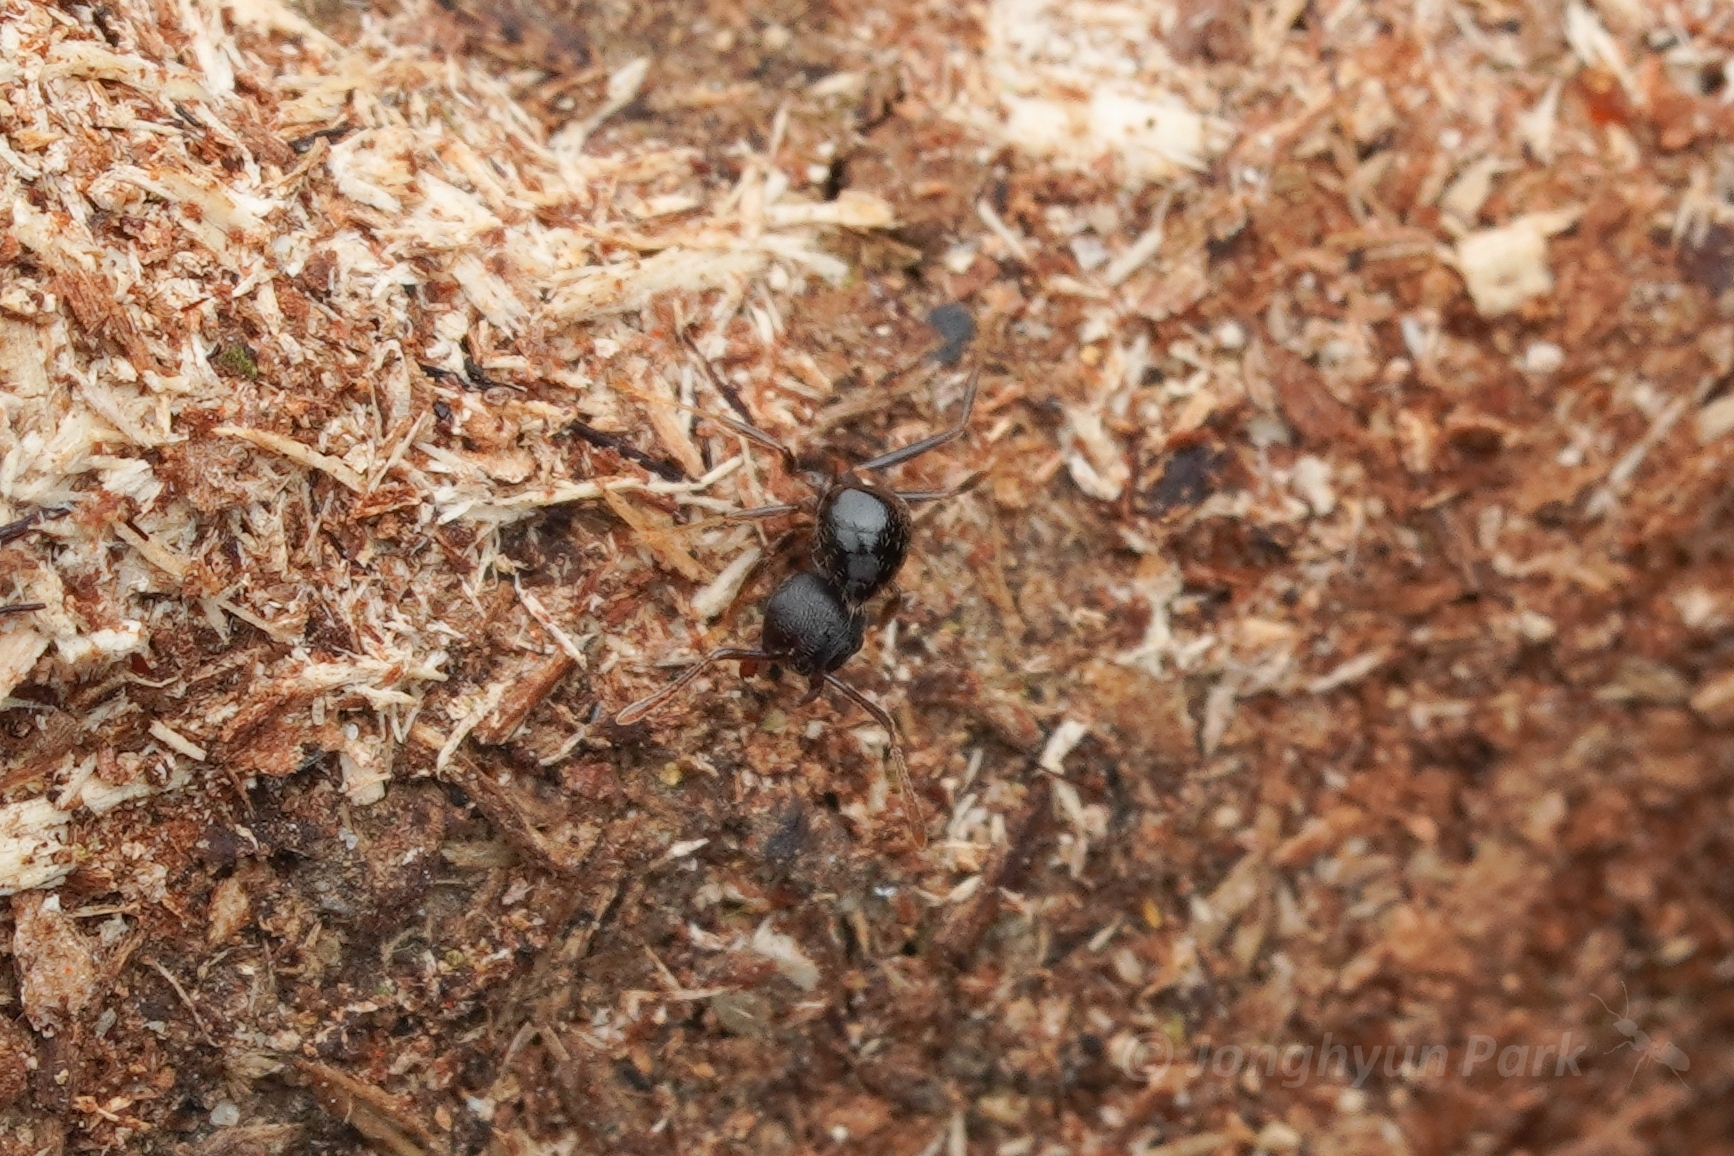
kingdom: Animalia
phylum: Arthropoda
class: Insecta
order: Hymenoptera
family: Formicidae
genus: Crematogaster
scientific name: Crematogaster modiglianii
